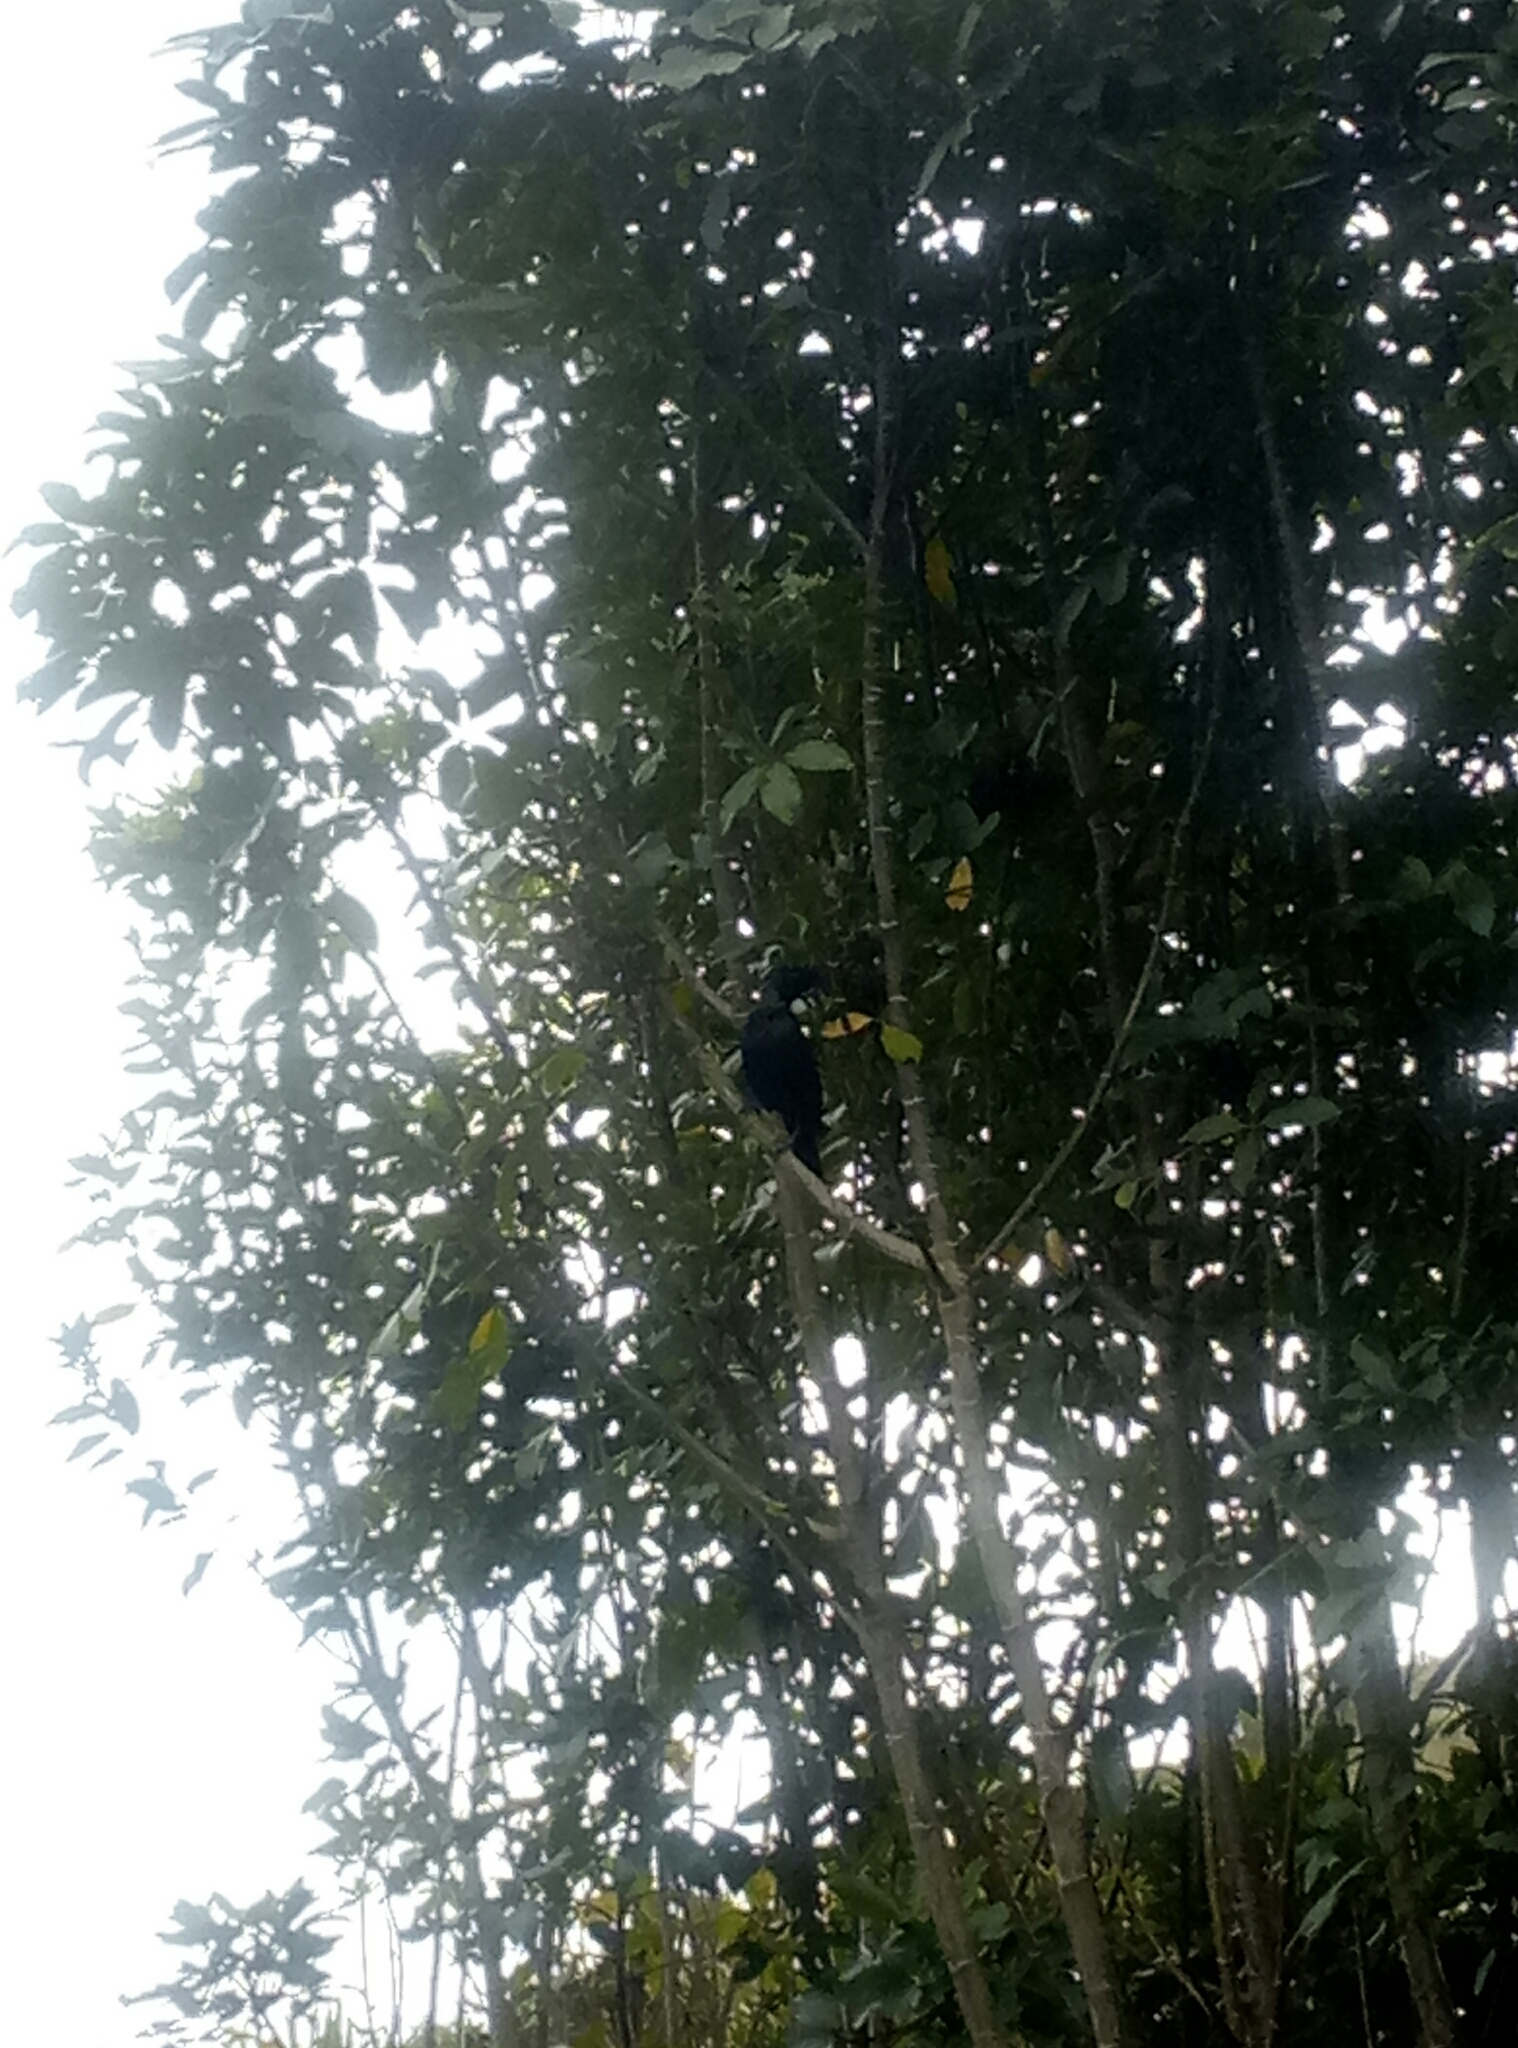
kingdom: Animalia
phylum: Chordata
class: Aves
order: Passeriformes
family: Meliphagidae
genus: Prosthemadera
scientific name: Prosthemadera novaeseelandiae
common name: Tui
